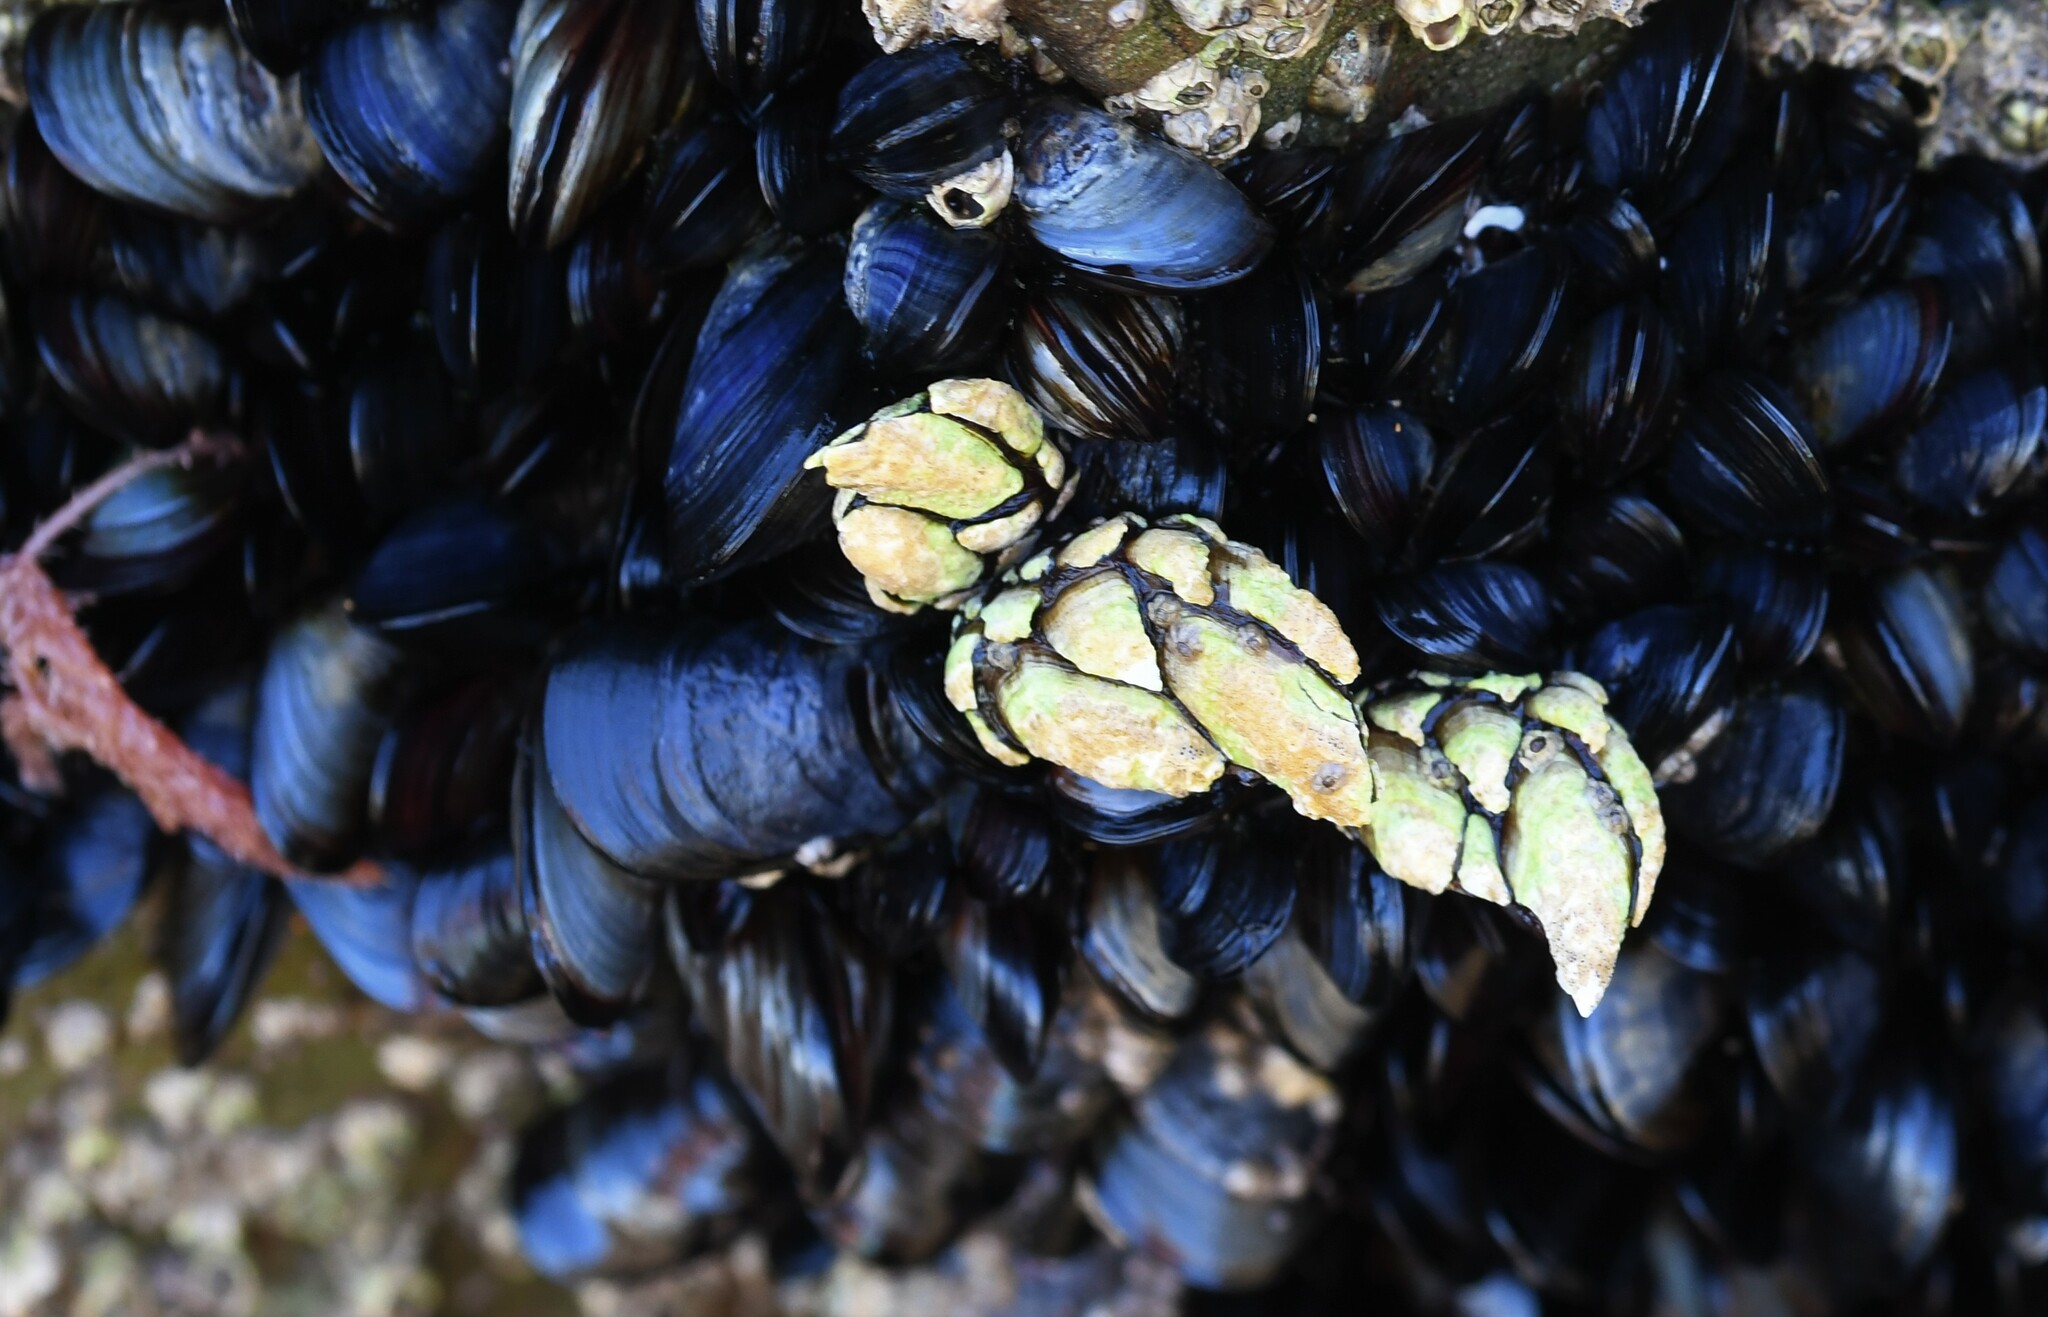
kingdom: Animalia
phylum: Arthropoda
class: Maxillopoda
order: Pedunculata
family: Pollicipedidae
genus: Pollicipes
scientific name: Pollicipes pollicipes
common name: Gooseneck barnacle
